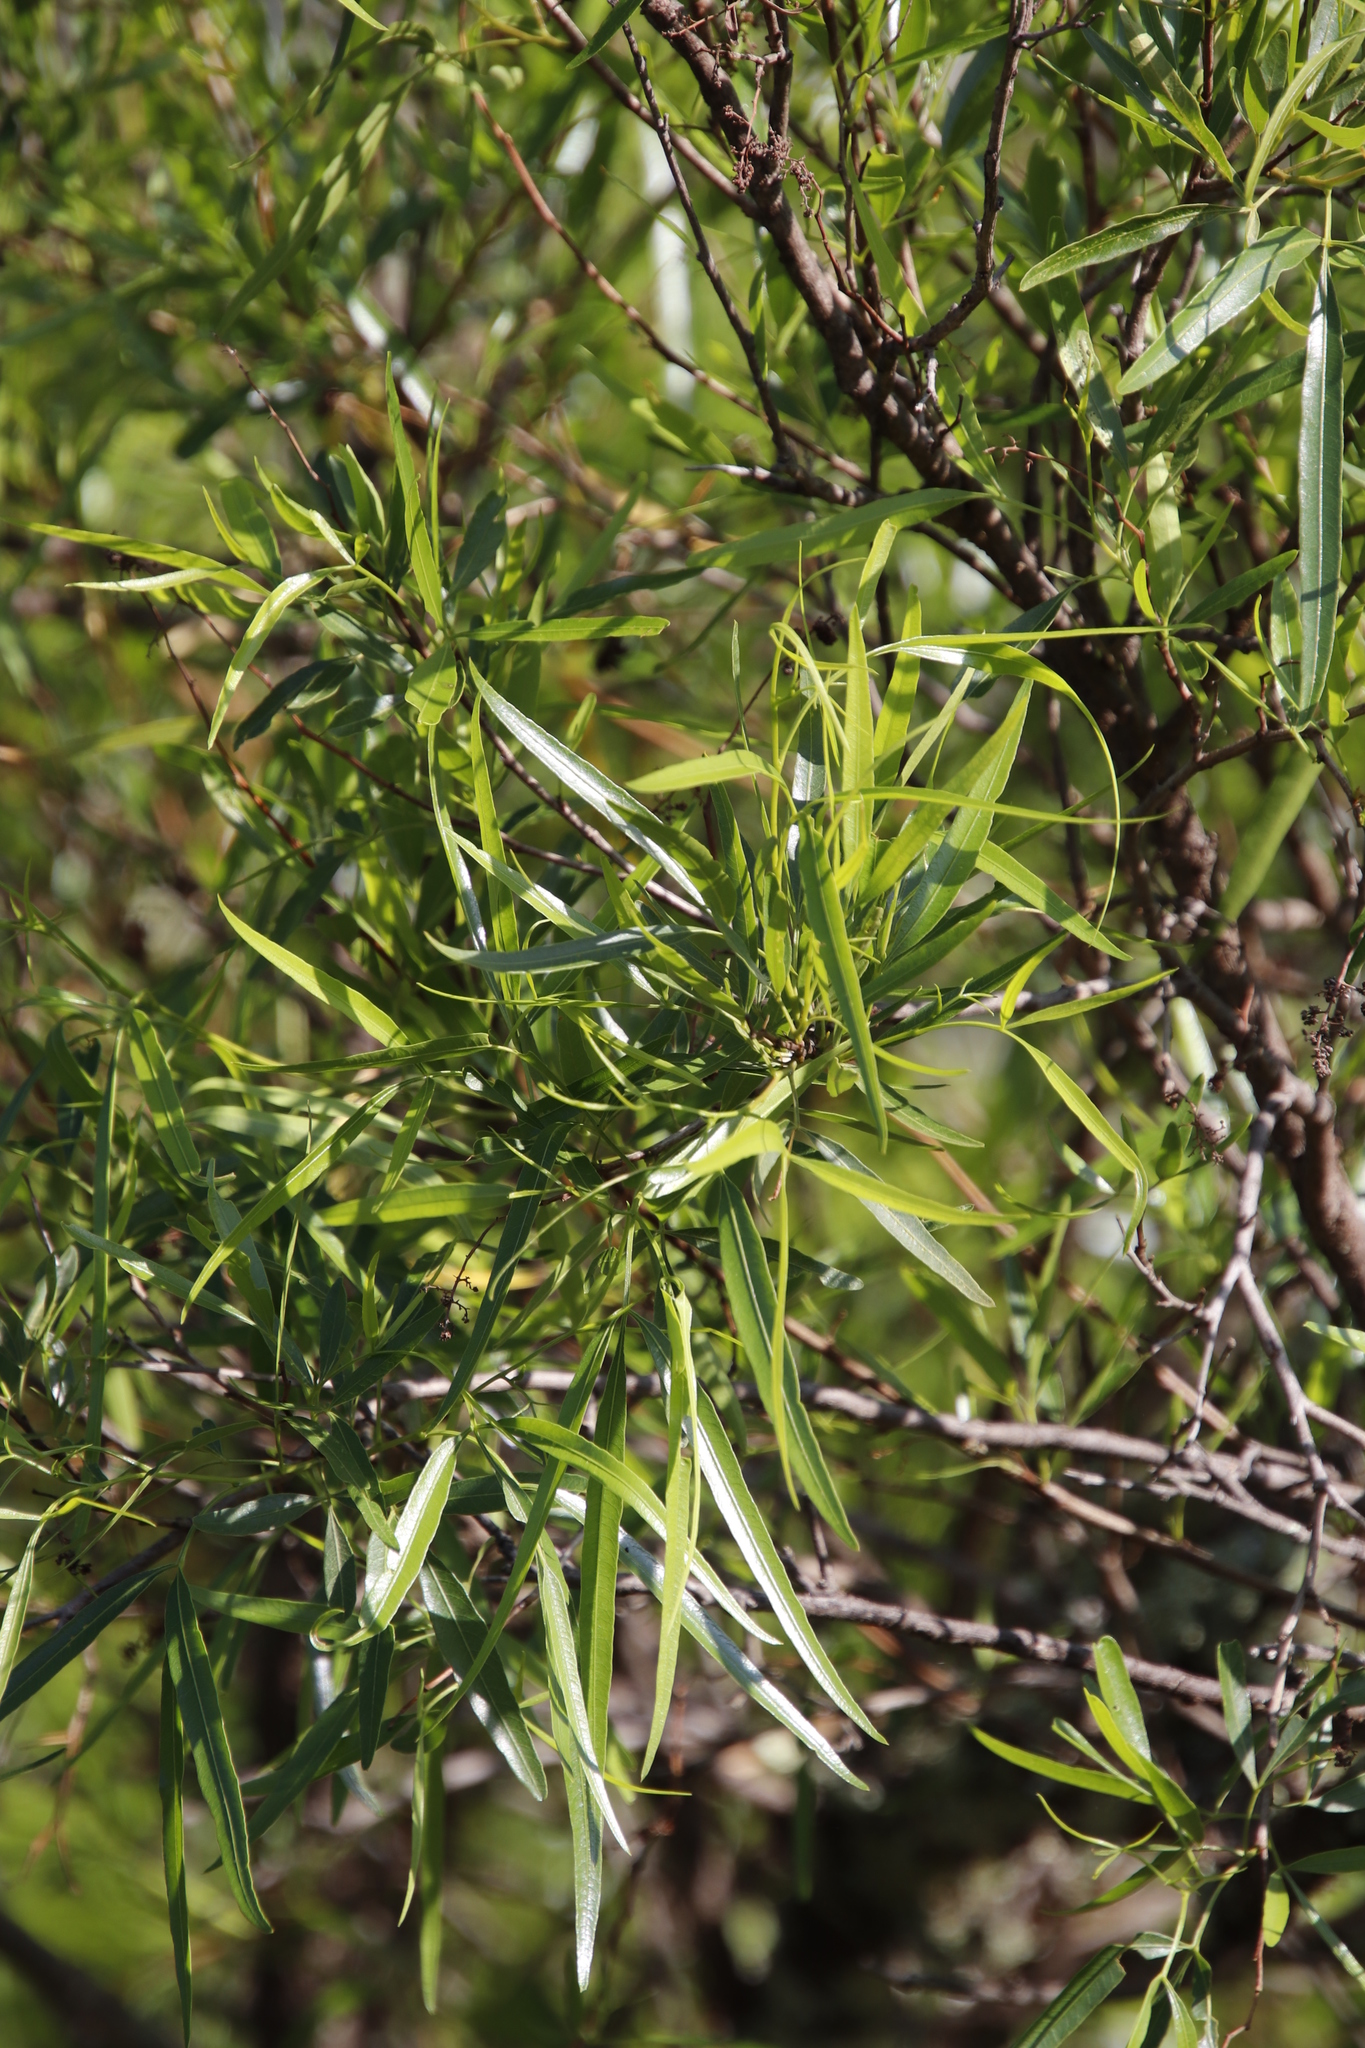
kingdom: Plantae
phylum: Tracheophyta
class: Magnoliopsida
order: Sapindales
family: Anacardiaceae
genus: Searsia
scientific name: Searsia lancea
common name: Cashew
